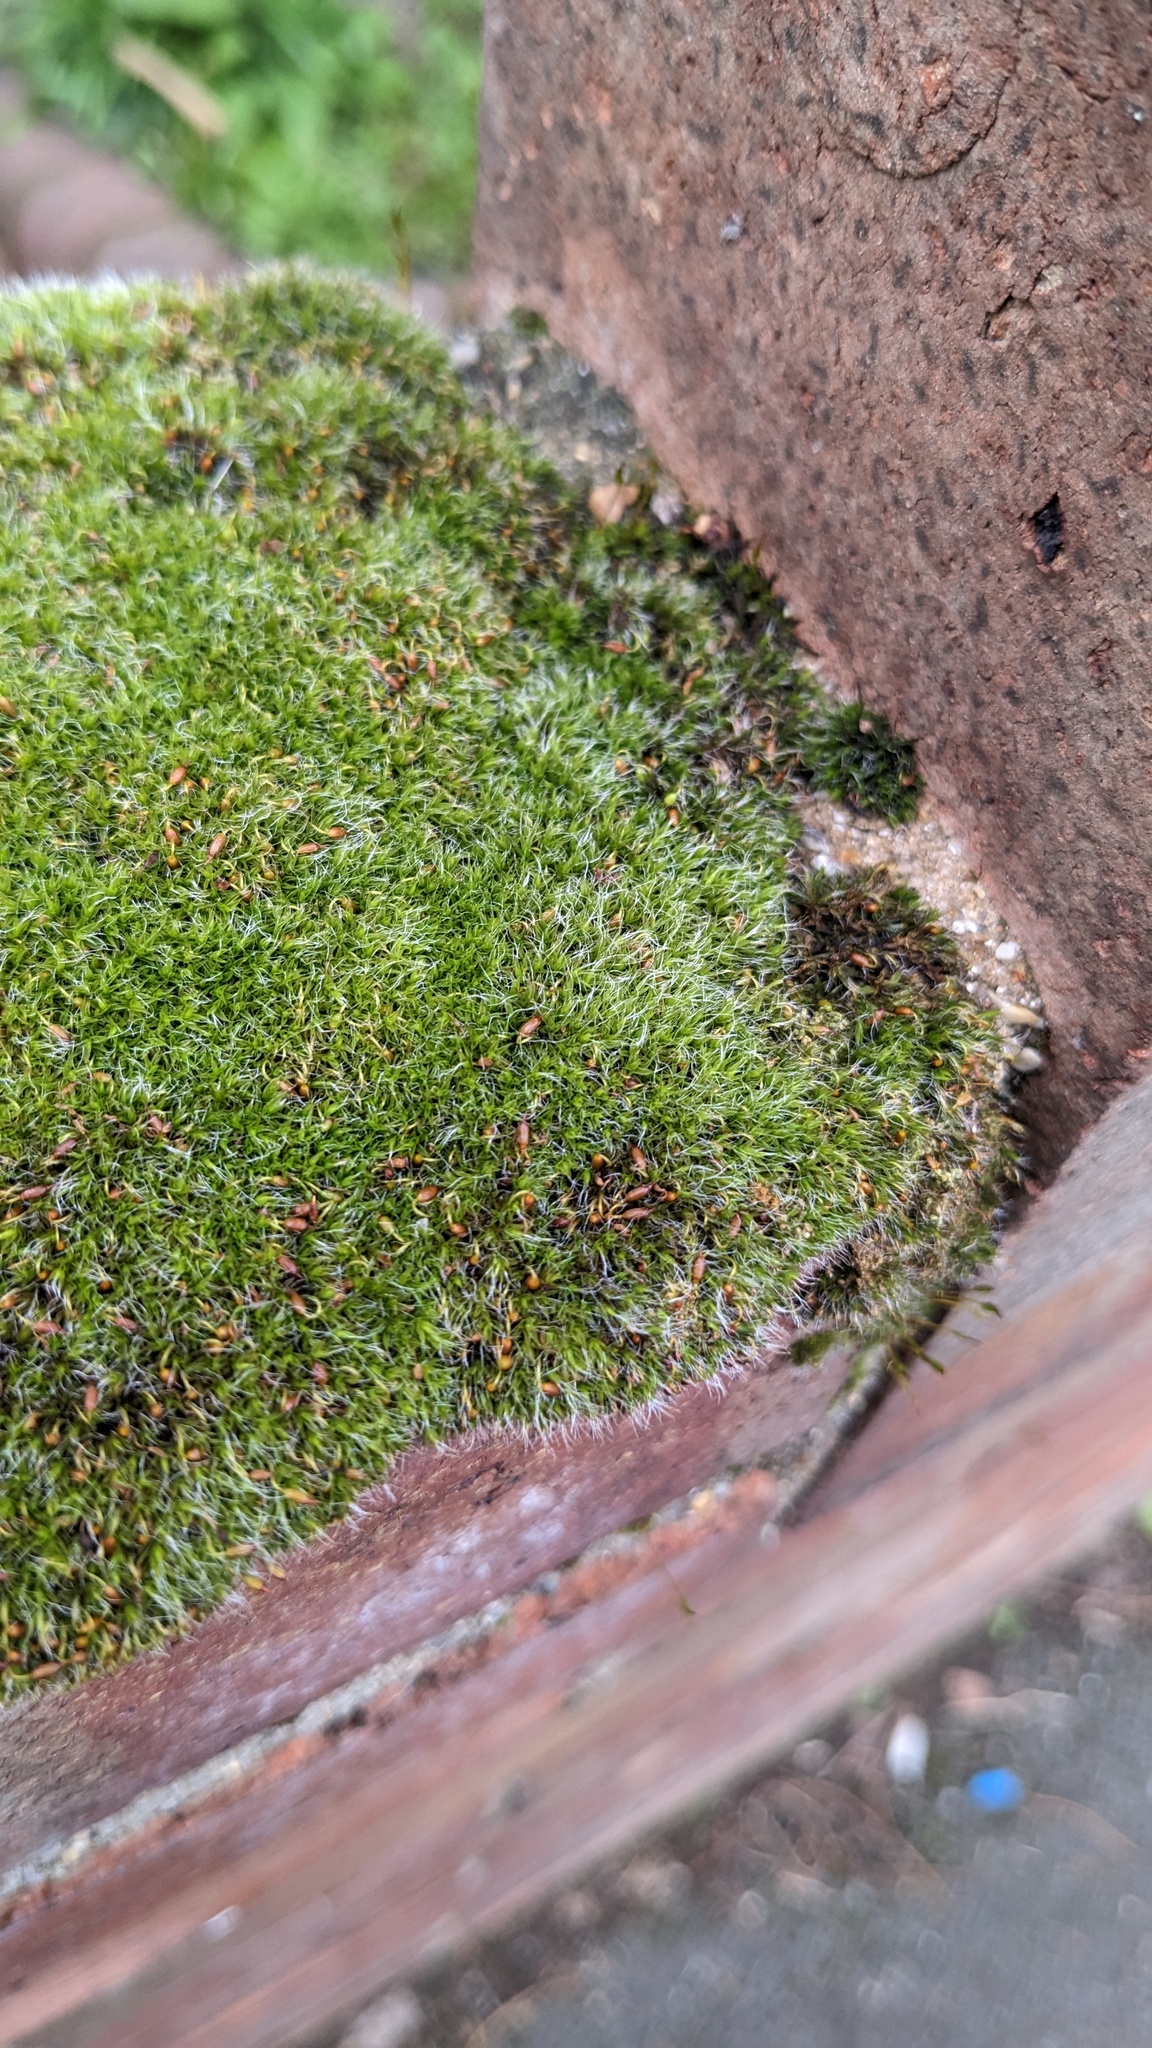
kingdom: Plantae
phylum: Bryophyta
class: Bryopsida
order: Grimmiales
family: Grimmiaceae
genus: Grimmia
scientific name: Grimmia pulvinata
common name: Grey-cushioned grimmia
